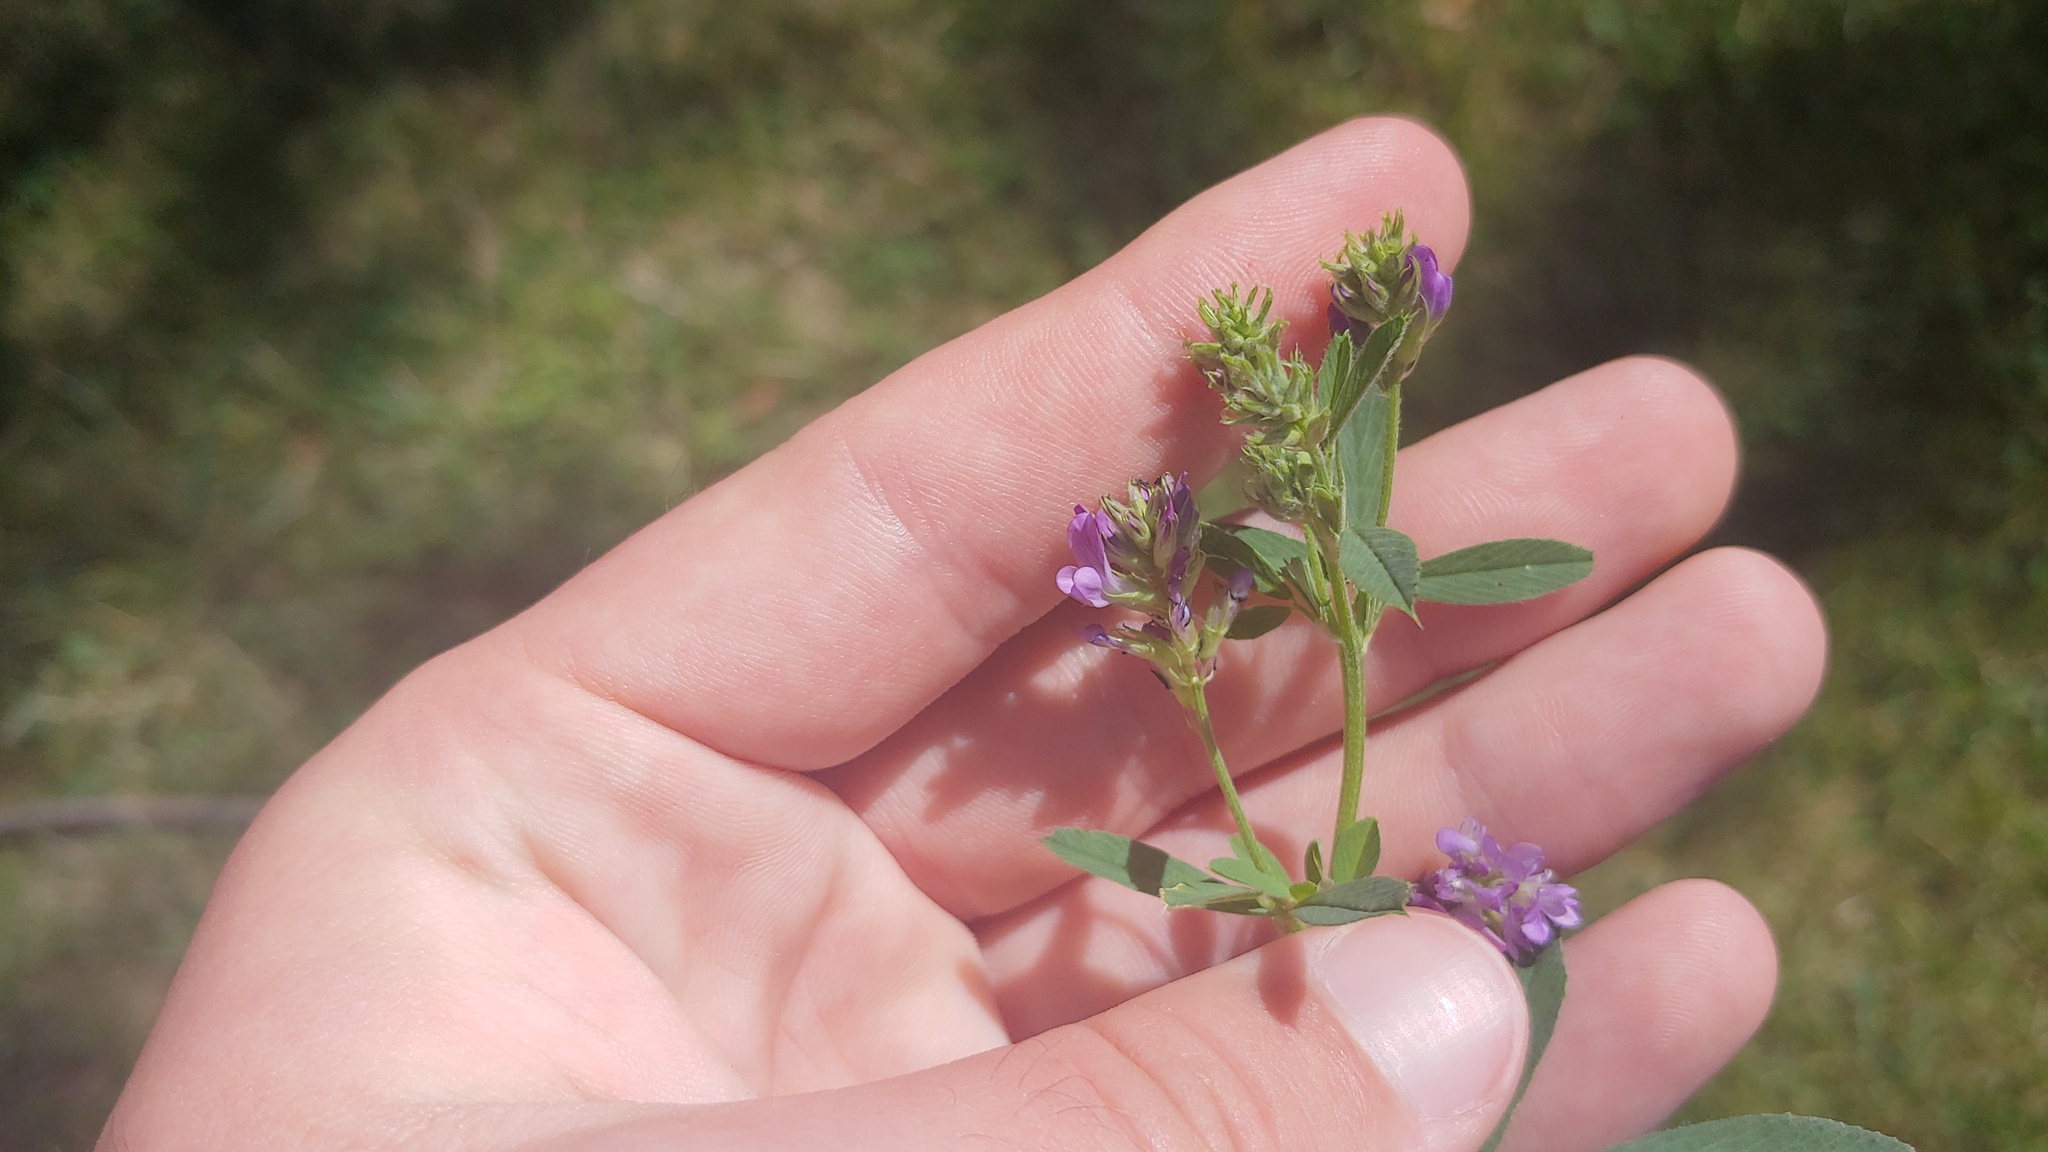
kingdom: Plantae
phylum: Tracheophyta
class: Magnoliopsida
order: Fabales
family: Fabaceae
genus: Medicago
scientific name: Medicago sativa
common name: Alfalfa
